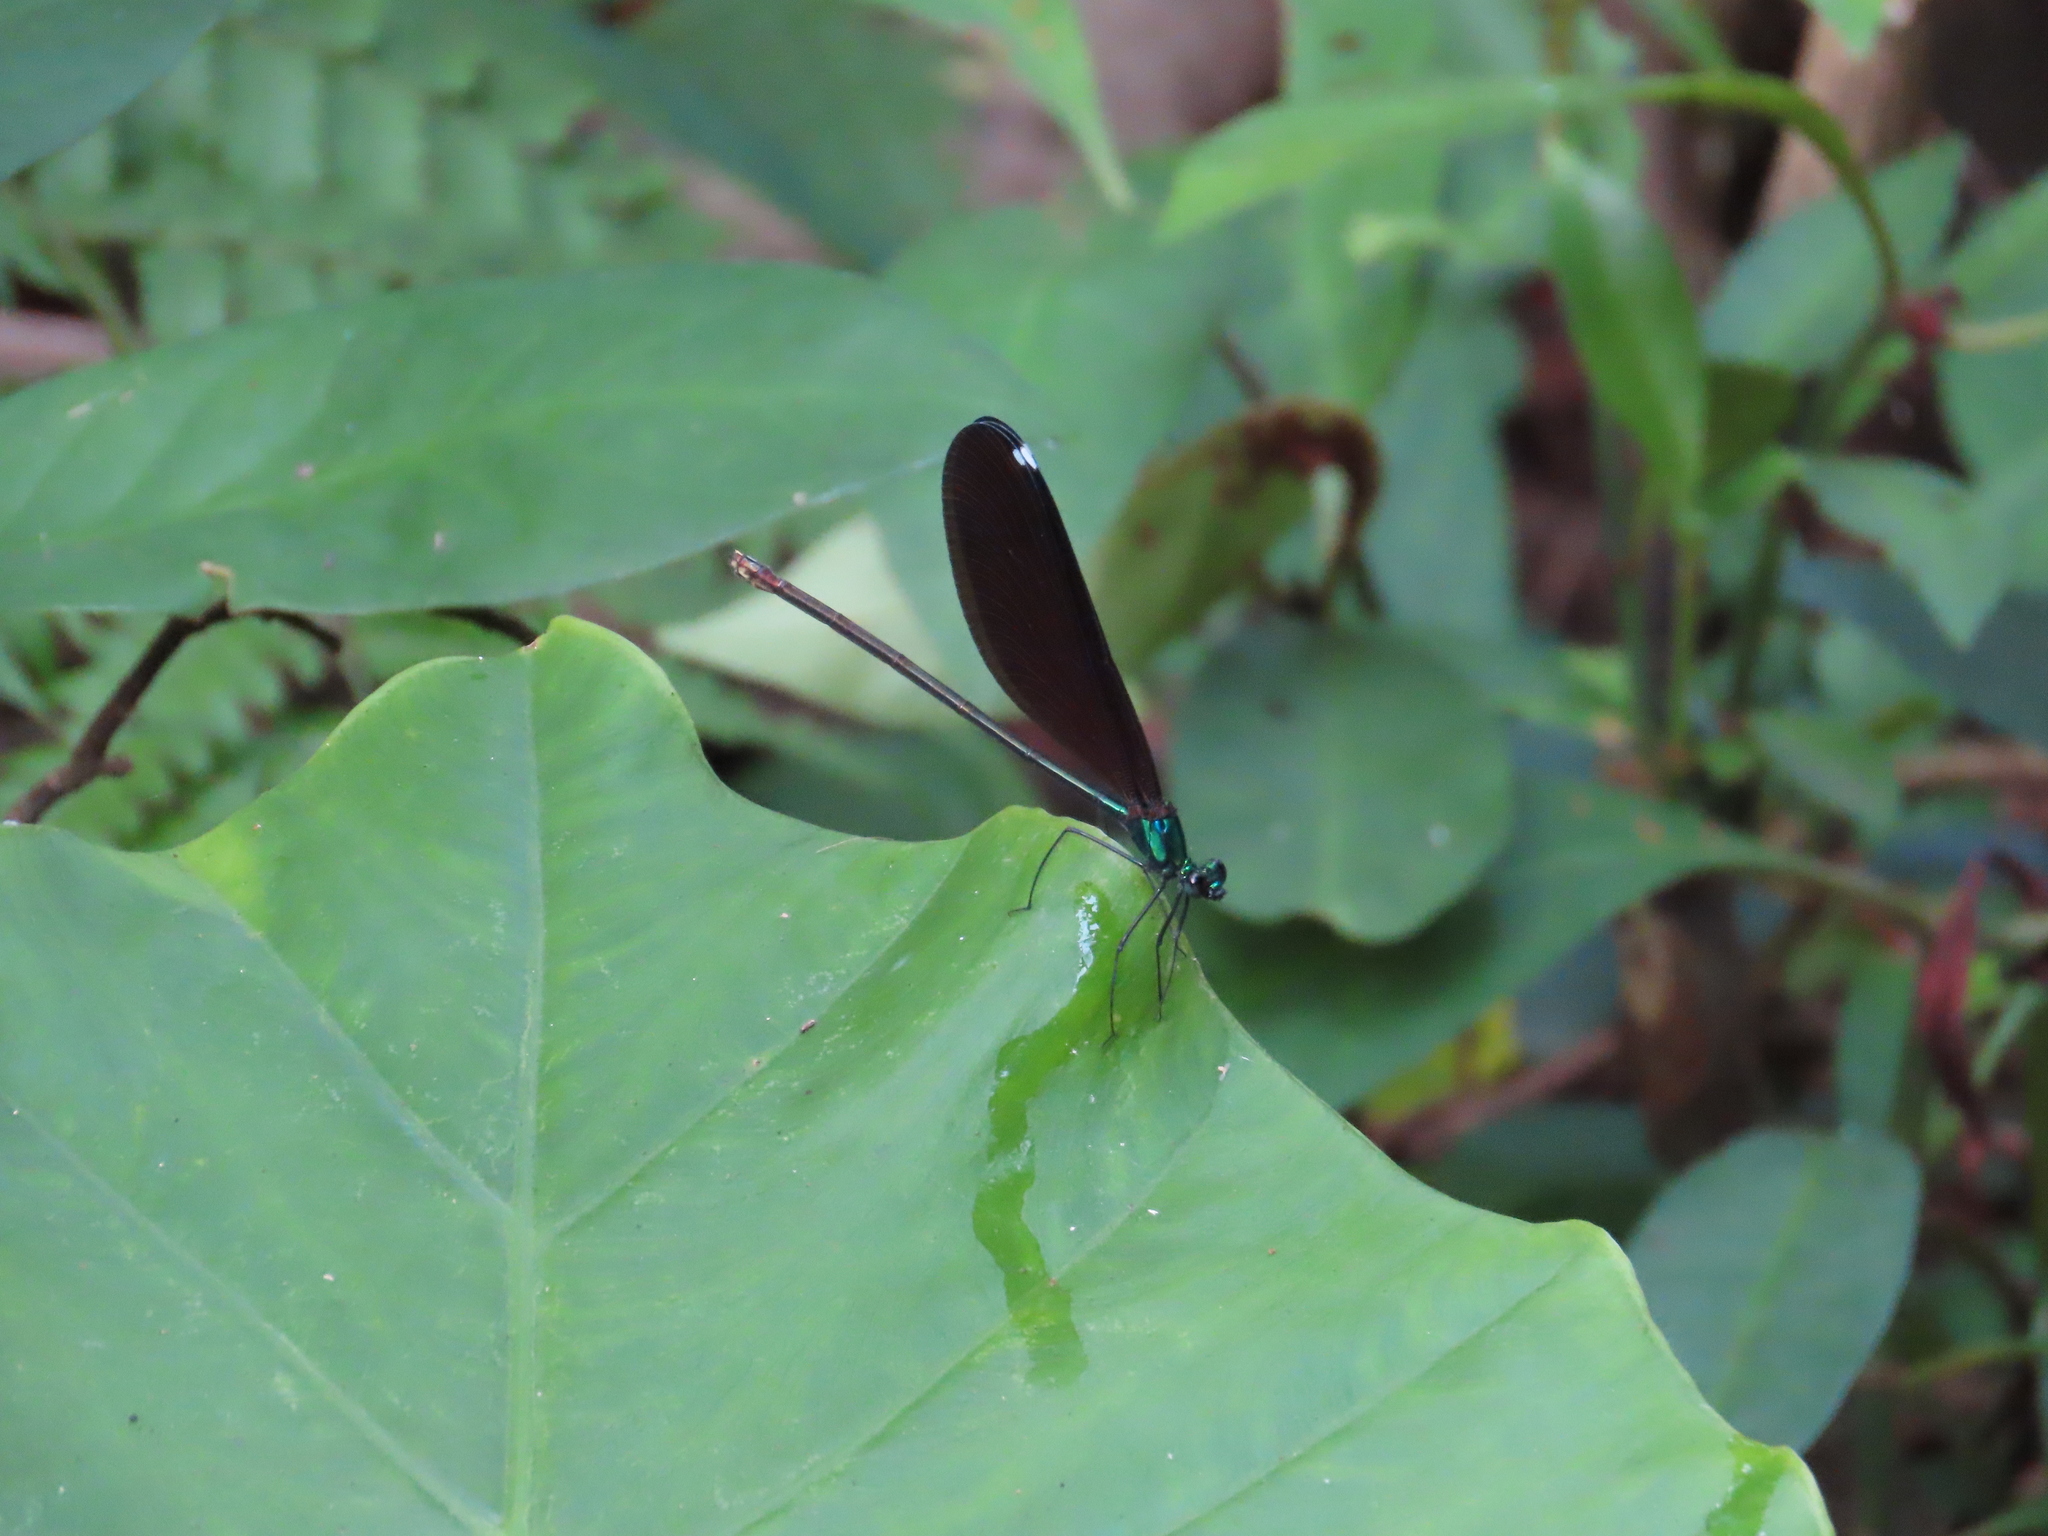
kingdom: Animalia
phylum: Arthropoda
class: Insecta
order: Odonata
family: Calopterygidae
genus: Matrona
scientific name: Matrona cyanoptera
